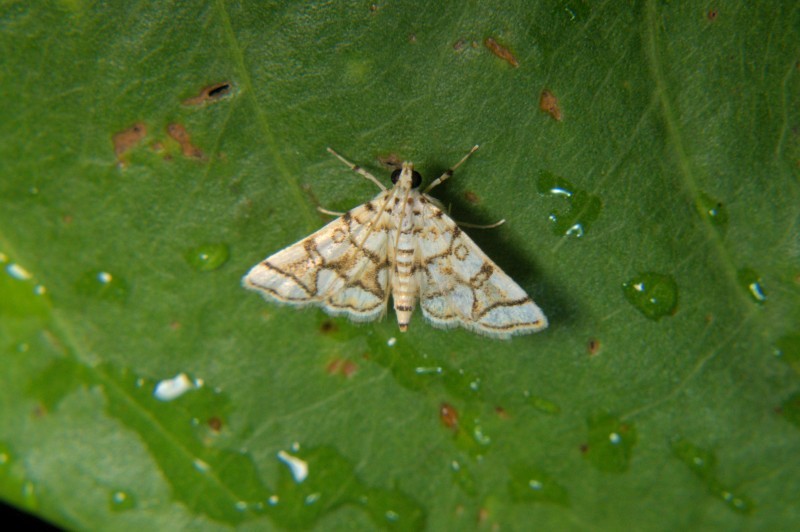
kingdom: Animalia
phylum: Arthropoda
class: Insecta
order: Lepidoptera
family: Crambidae
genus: Elophila
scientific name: Elophila
